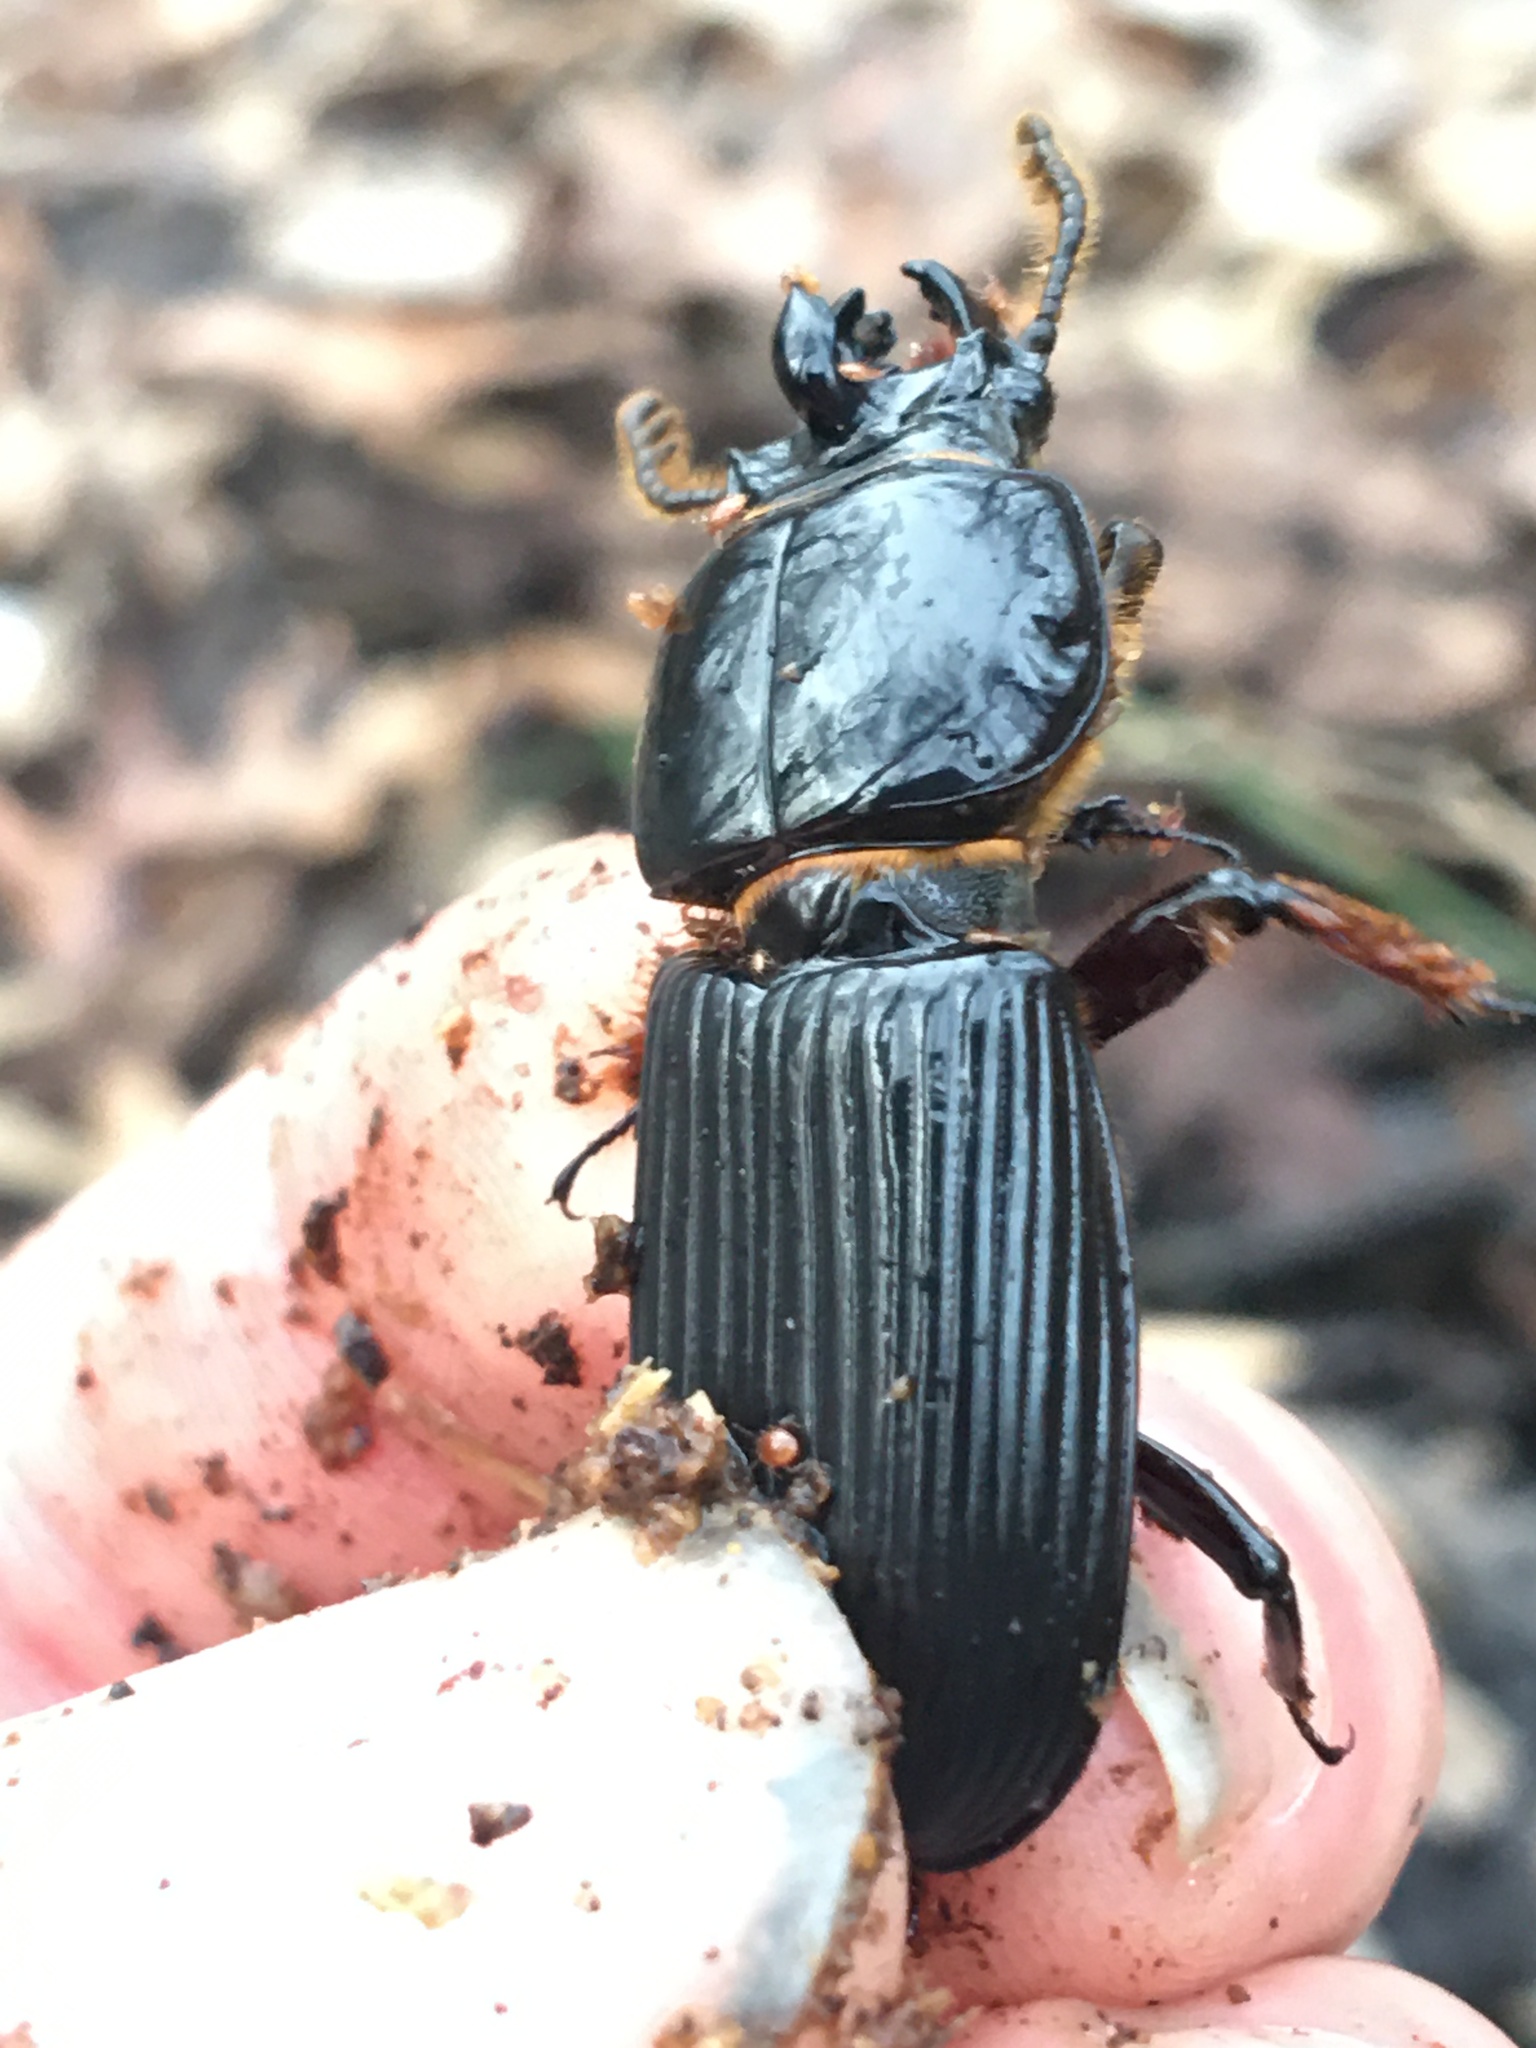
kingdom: Animalia
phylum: Arthropoda
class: Insecta
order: Coleoptera
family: Passalidae
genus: Odontotaenius
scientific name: Odontotaenius disjunctus
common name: Patent leather beetle
